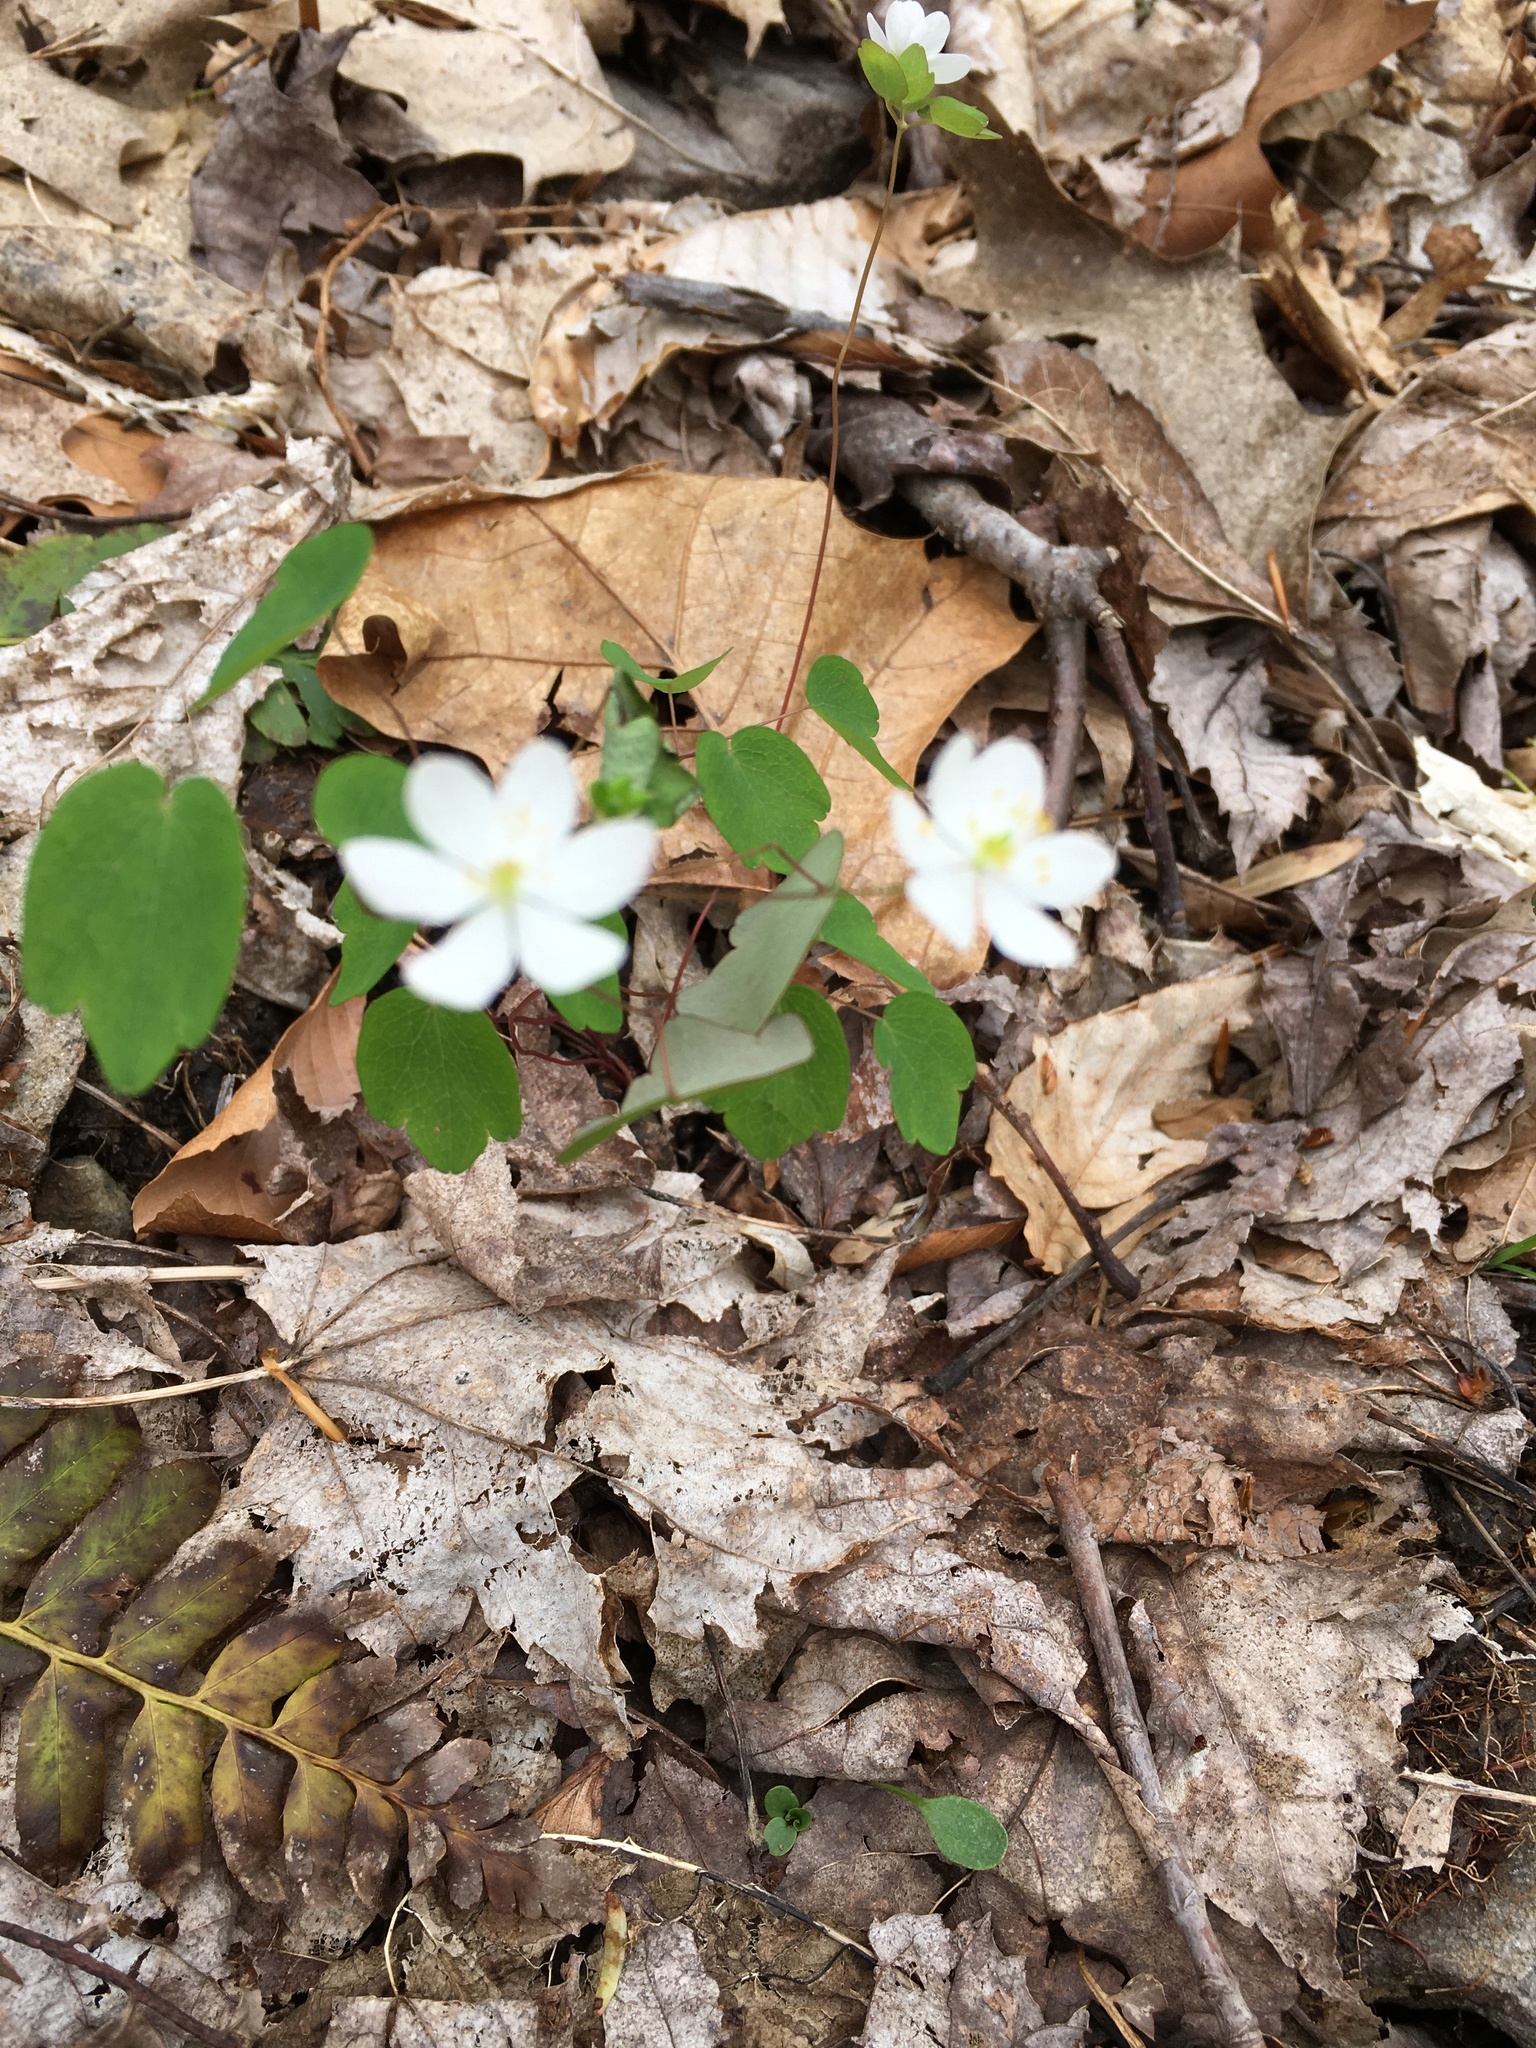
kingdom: Plantae
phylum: Tracheophyta
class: Magnoliopsida
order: Ranunculales
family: Ranunculaceae
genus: Thalictrum
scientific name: Thalictrum thalictroides
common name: Rue-anemone
